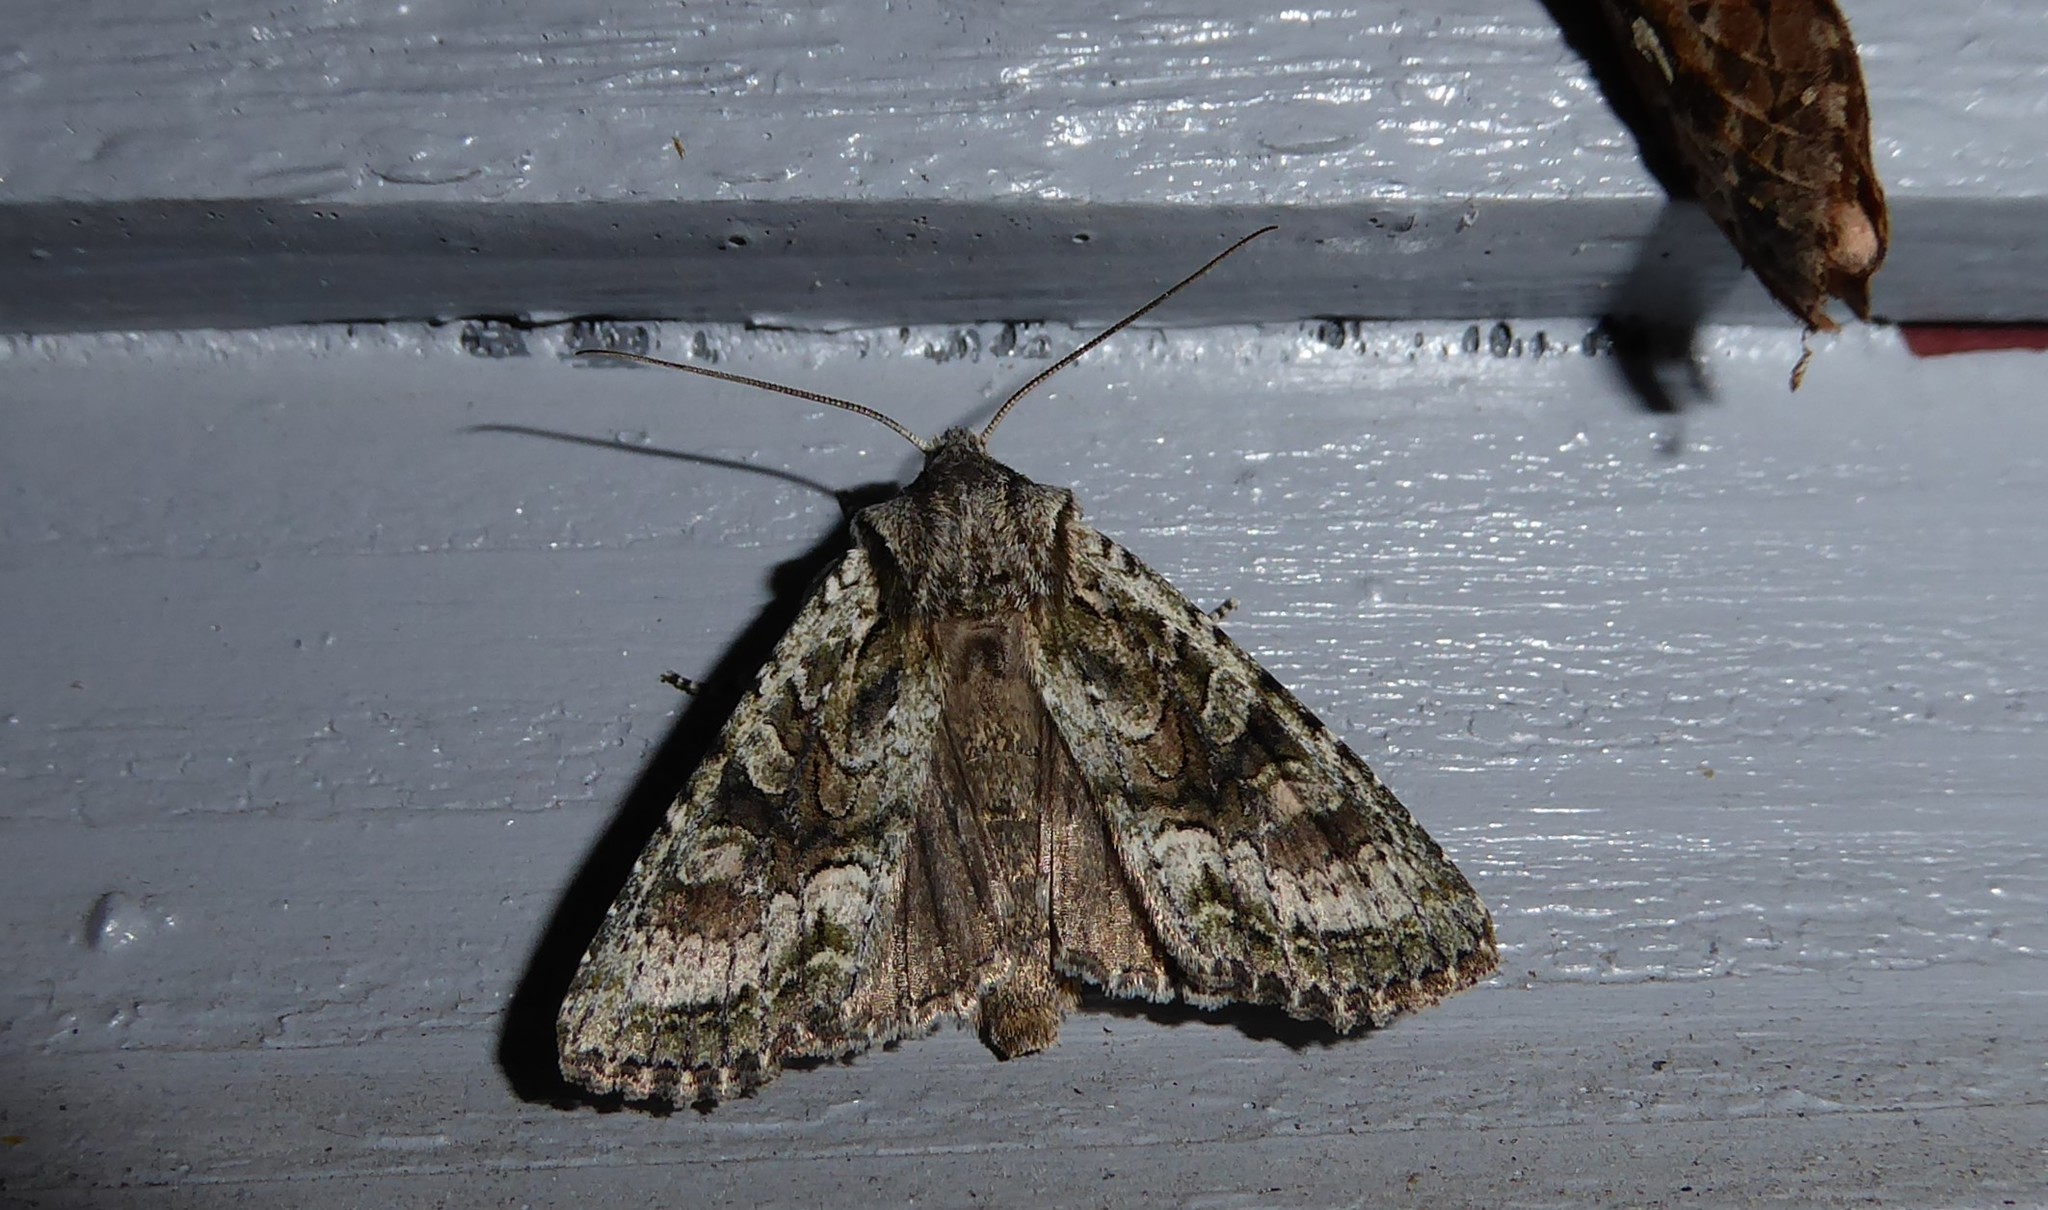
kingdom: Animalia
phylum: Arthropoda
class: Insecta
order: Lepidoptera
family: Noctuidae
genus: Ichneutica
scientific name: Ichneutica mutans
